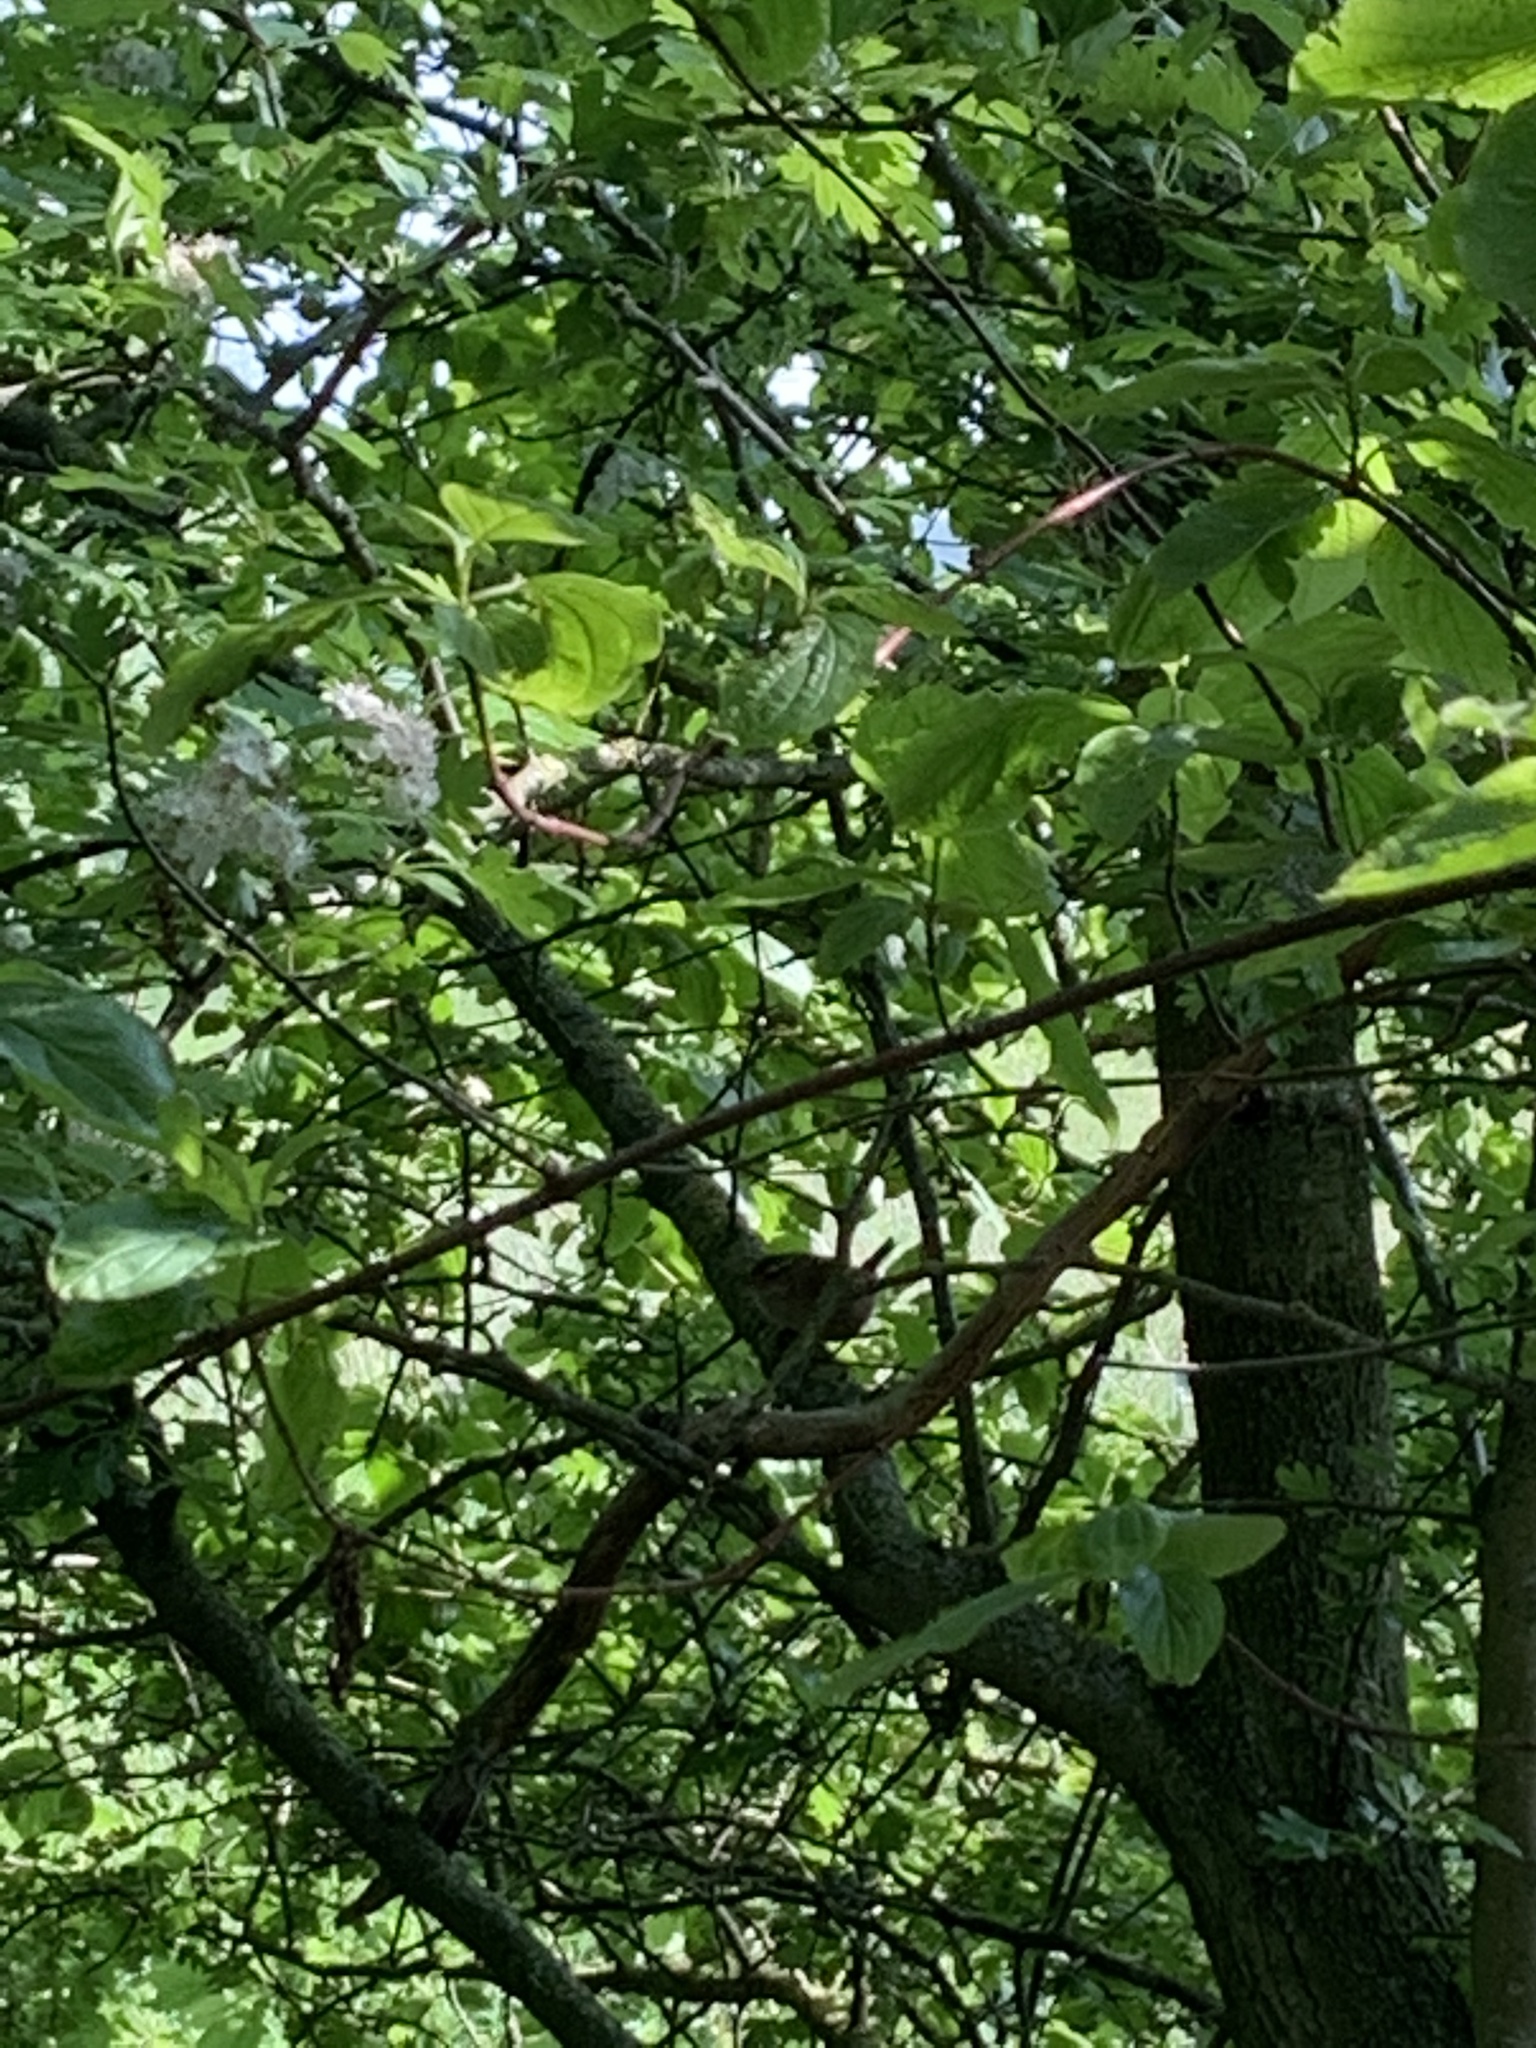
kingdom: Animalia
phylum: Chordata
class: Aves
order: Passeriformes
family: Troglodytidae
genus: Troglodytes
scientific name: Troglodytes troglodytes
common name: Eurasian wren
